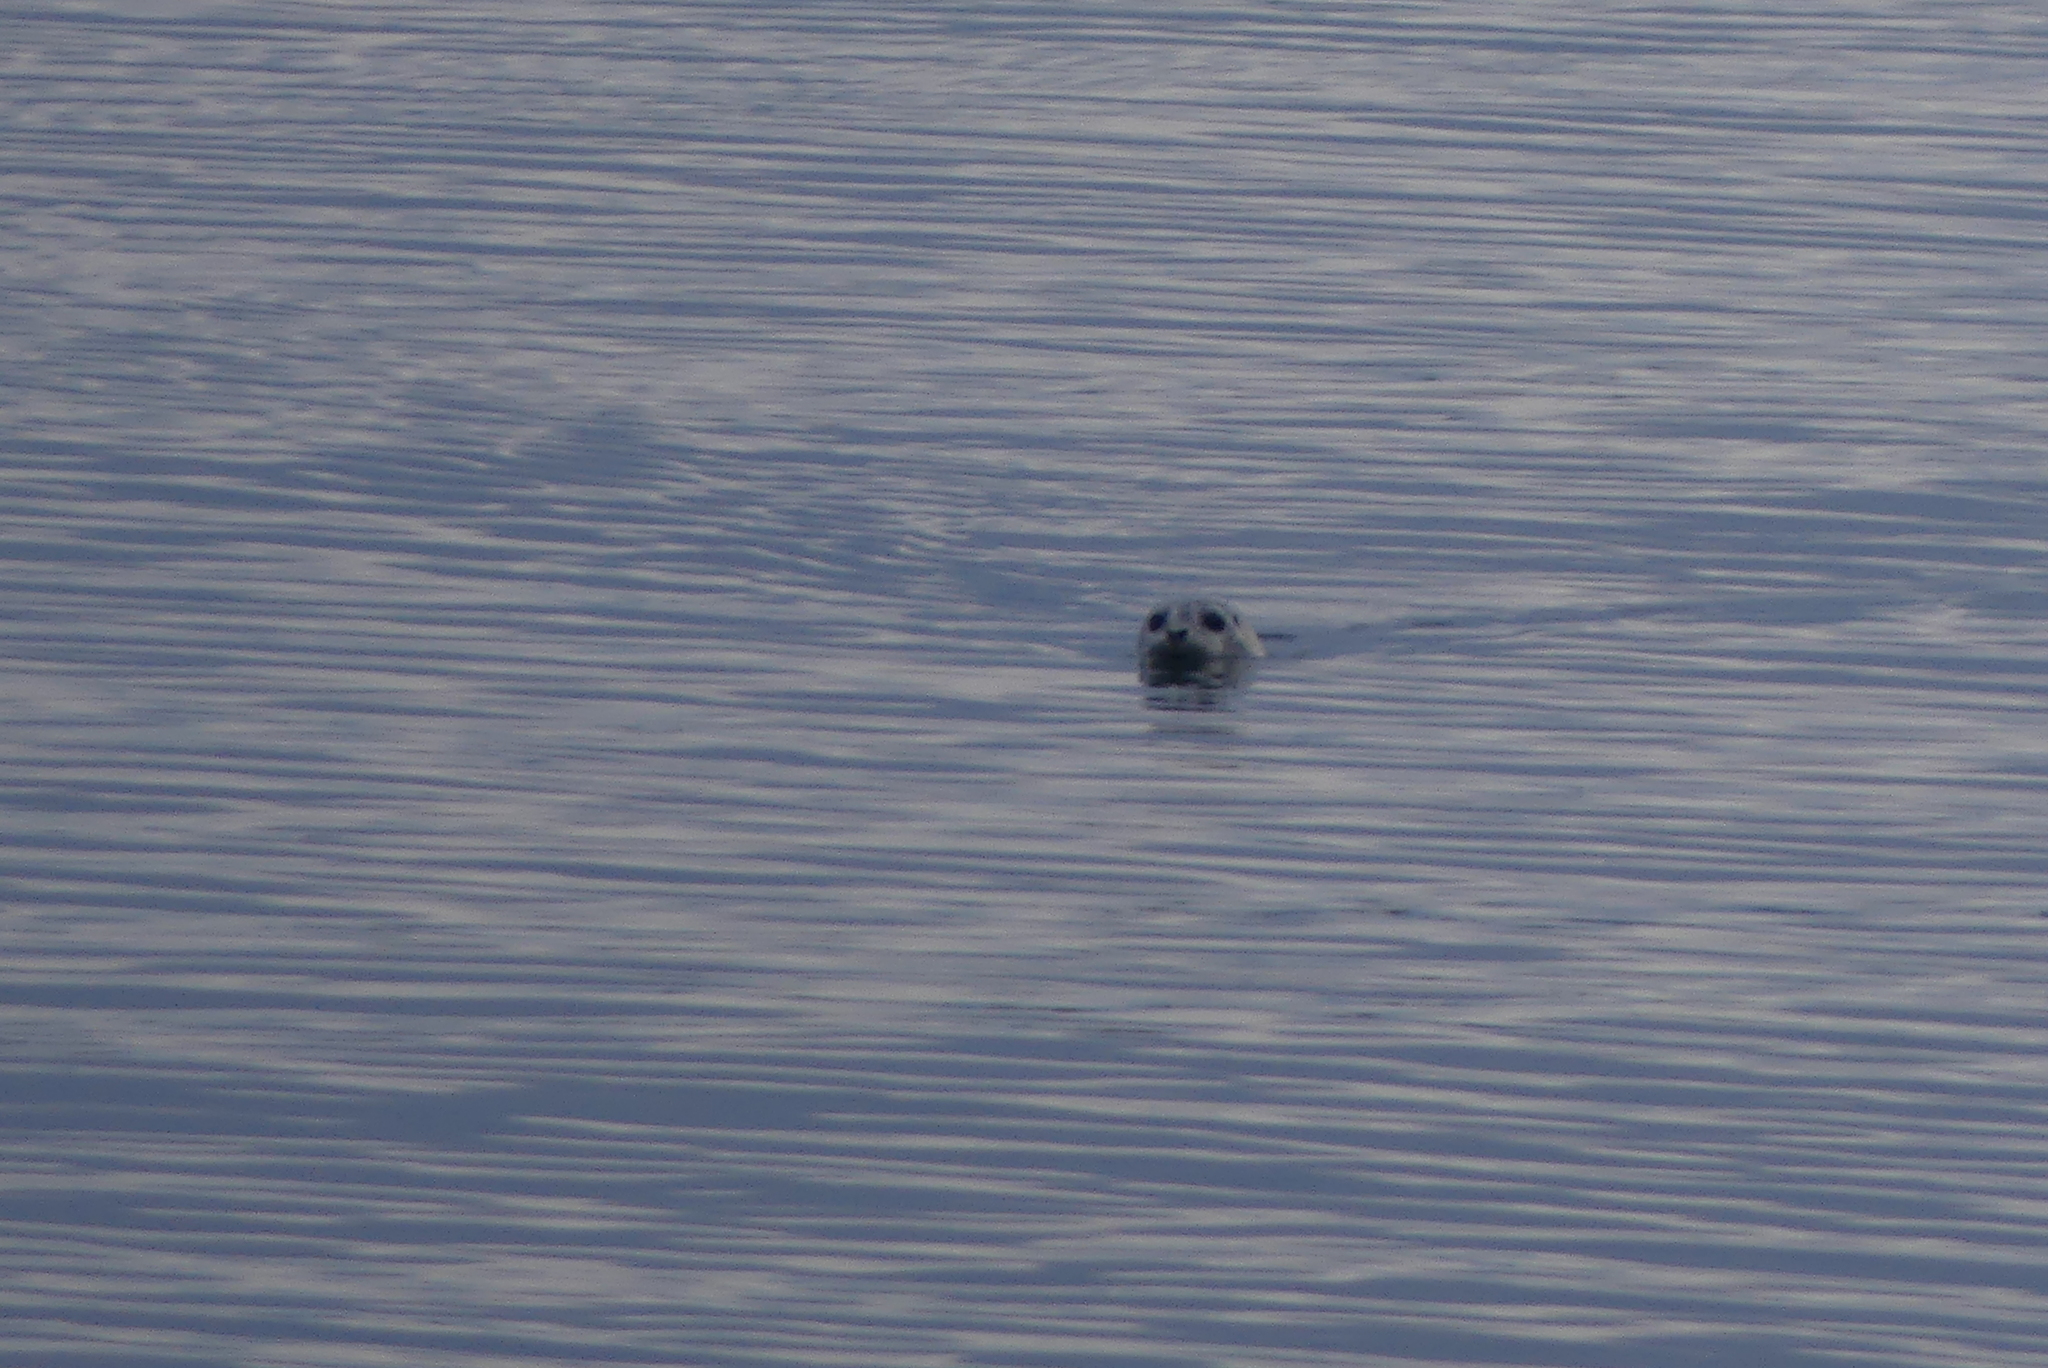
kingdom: Animalia
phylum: Chordata
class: Mammalia
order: Carnivora
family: Phocidae
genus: Phoca
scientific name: Phoca vitulina
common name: Harbor seal
